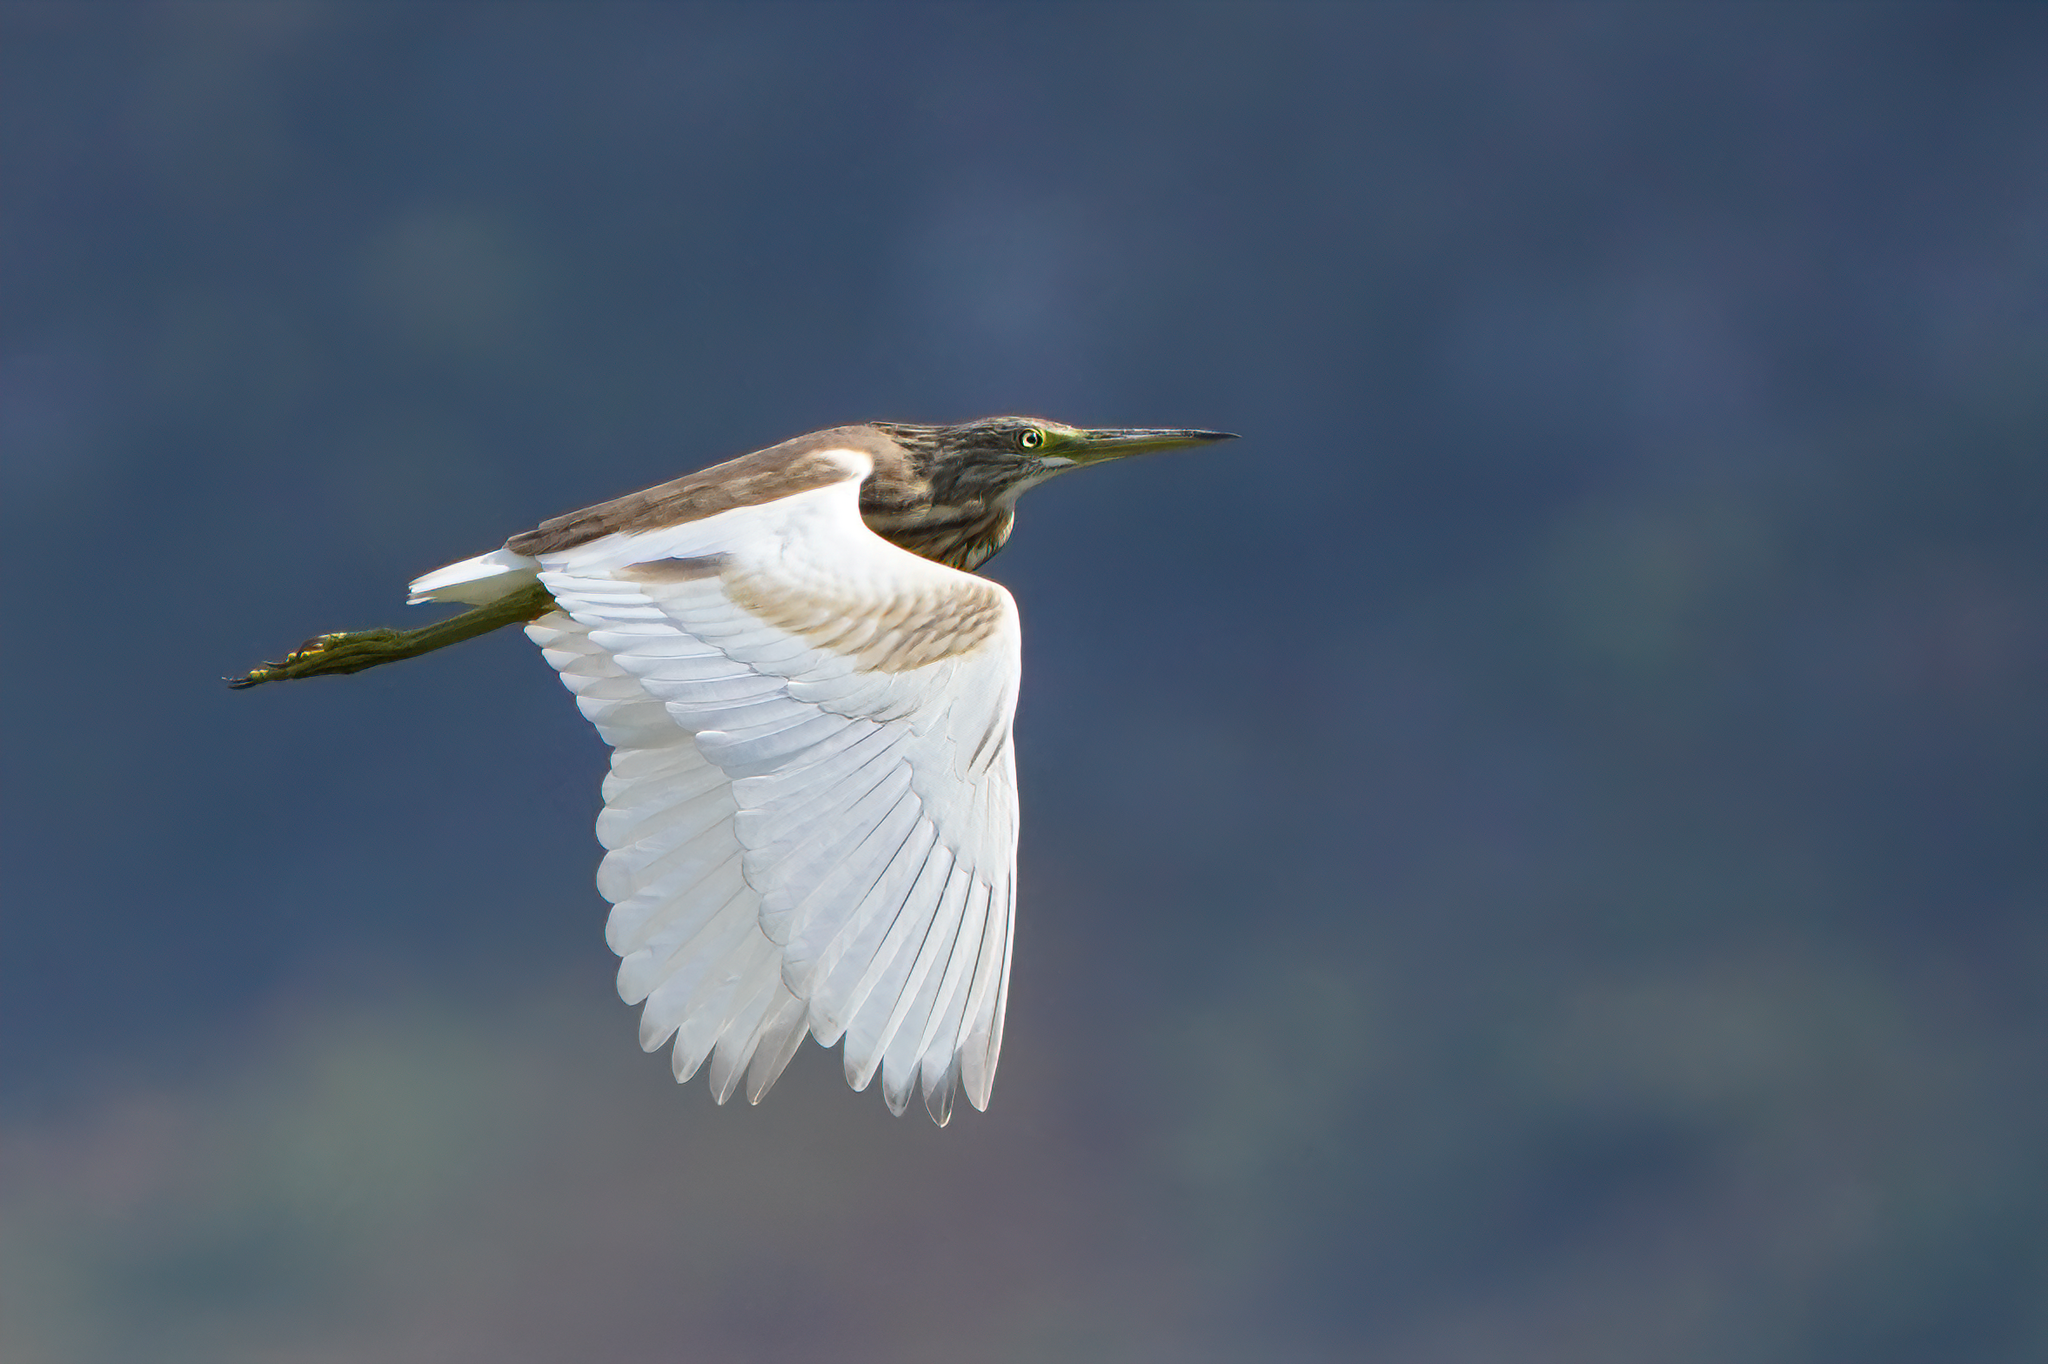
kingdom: Animalia
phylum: Chordata
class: Aves
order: Pelecaniformes
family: Ardeidae
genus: Ardeola
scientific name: Ardeola ralloides
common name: Squacco heron
